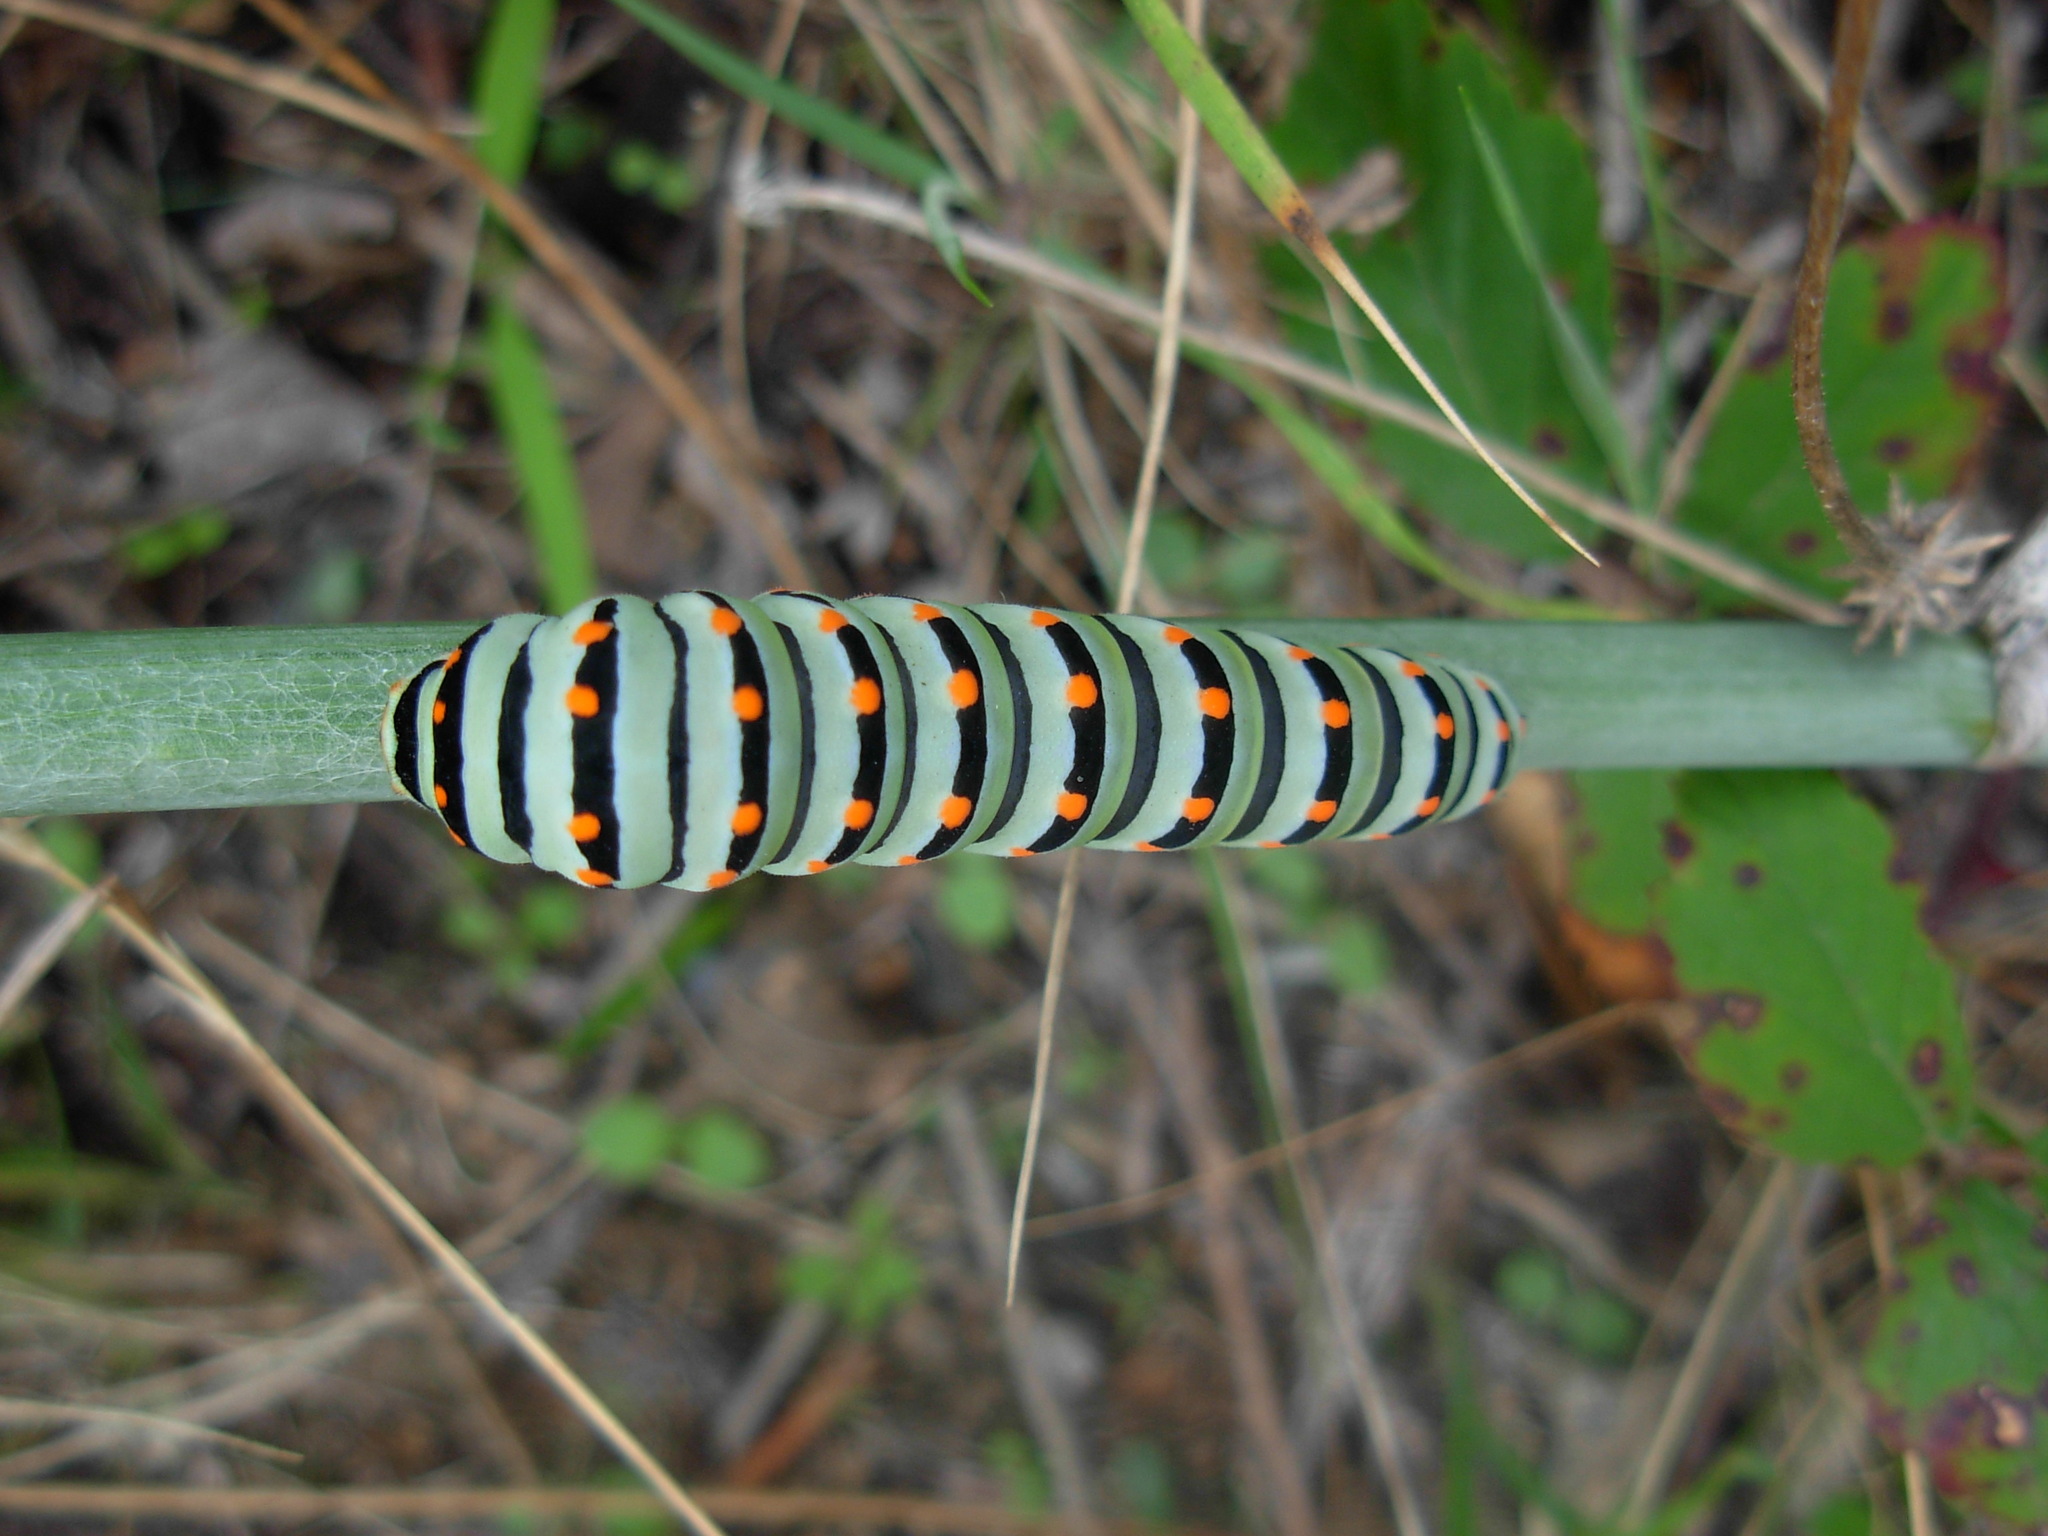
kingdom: Animalia
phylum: Arthropoda
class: Insecta
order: Lepidoptera
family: Papilionidae
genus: Papilio
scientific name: Papilio machaon
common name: Swallowtail
